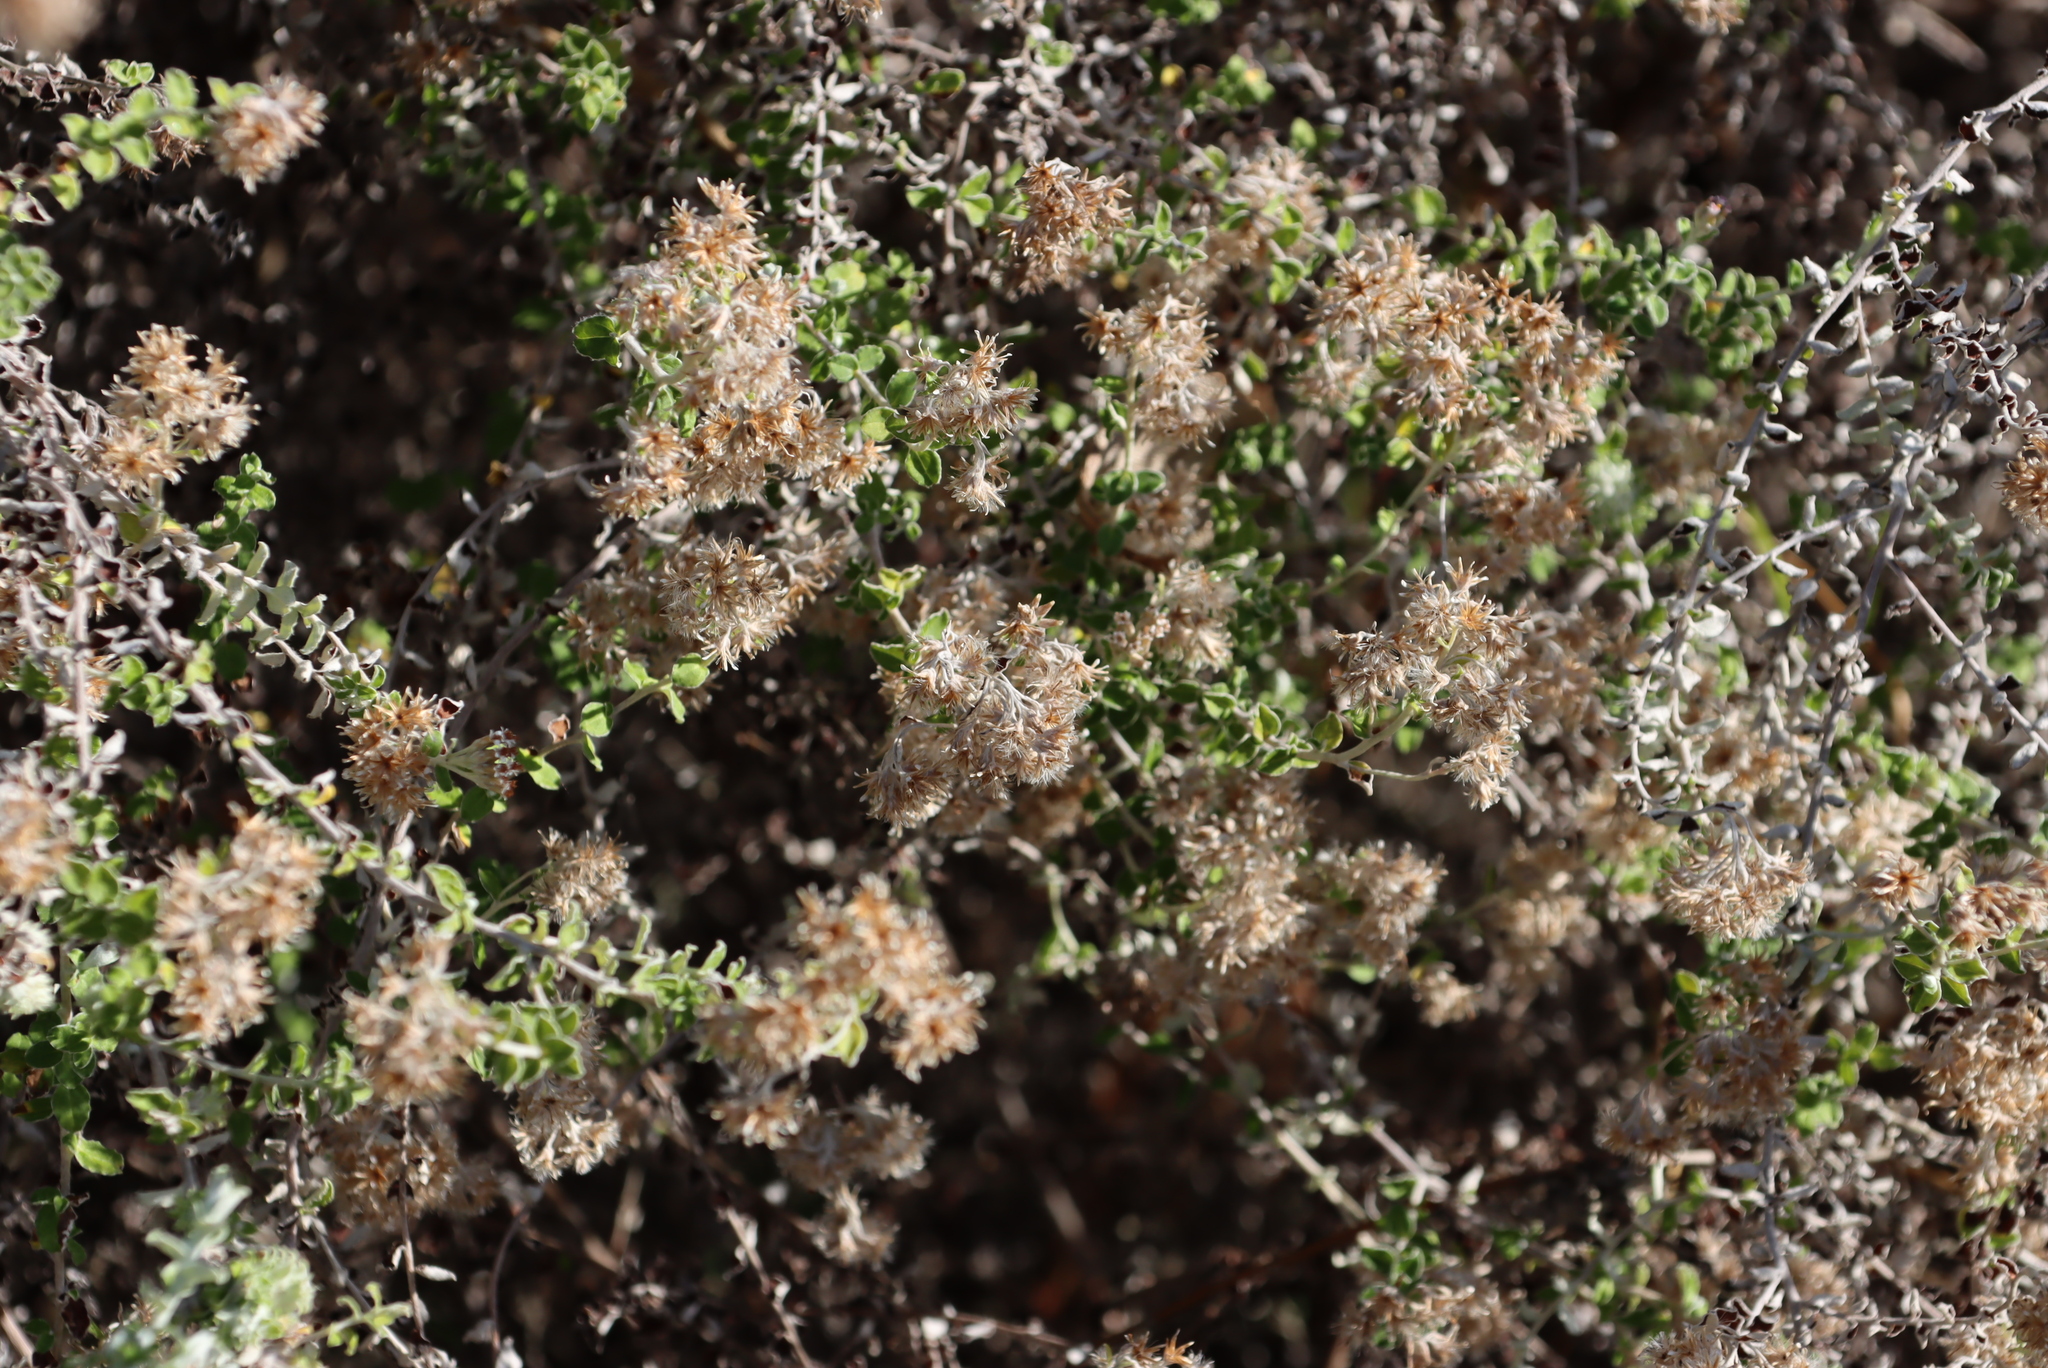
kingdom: Plantae
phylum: Tracheophyta
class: Magnoliopsida
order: Asterales
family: Asteraceae
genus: Plecostachys
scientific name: Plecostachys serpyllifolia
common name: Petite licorice
